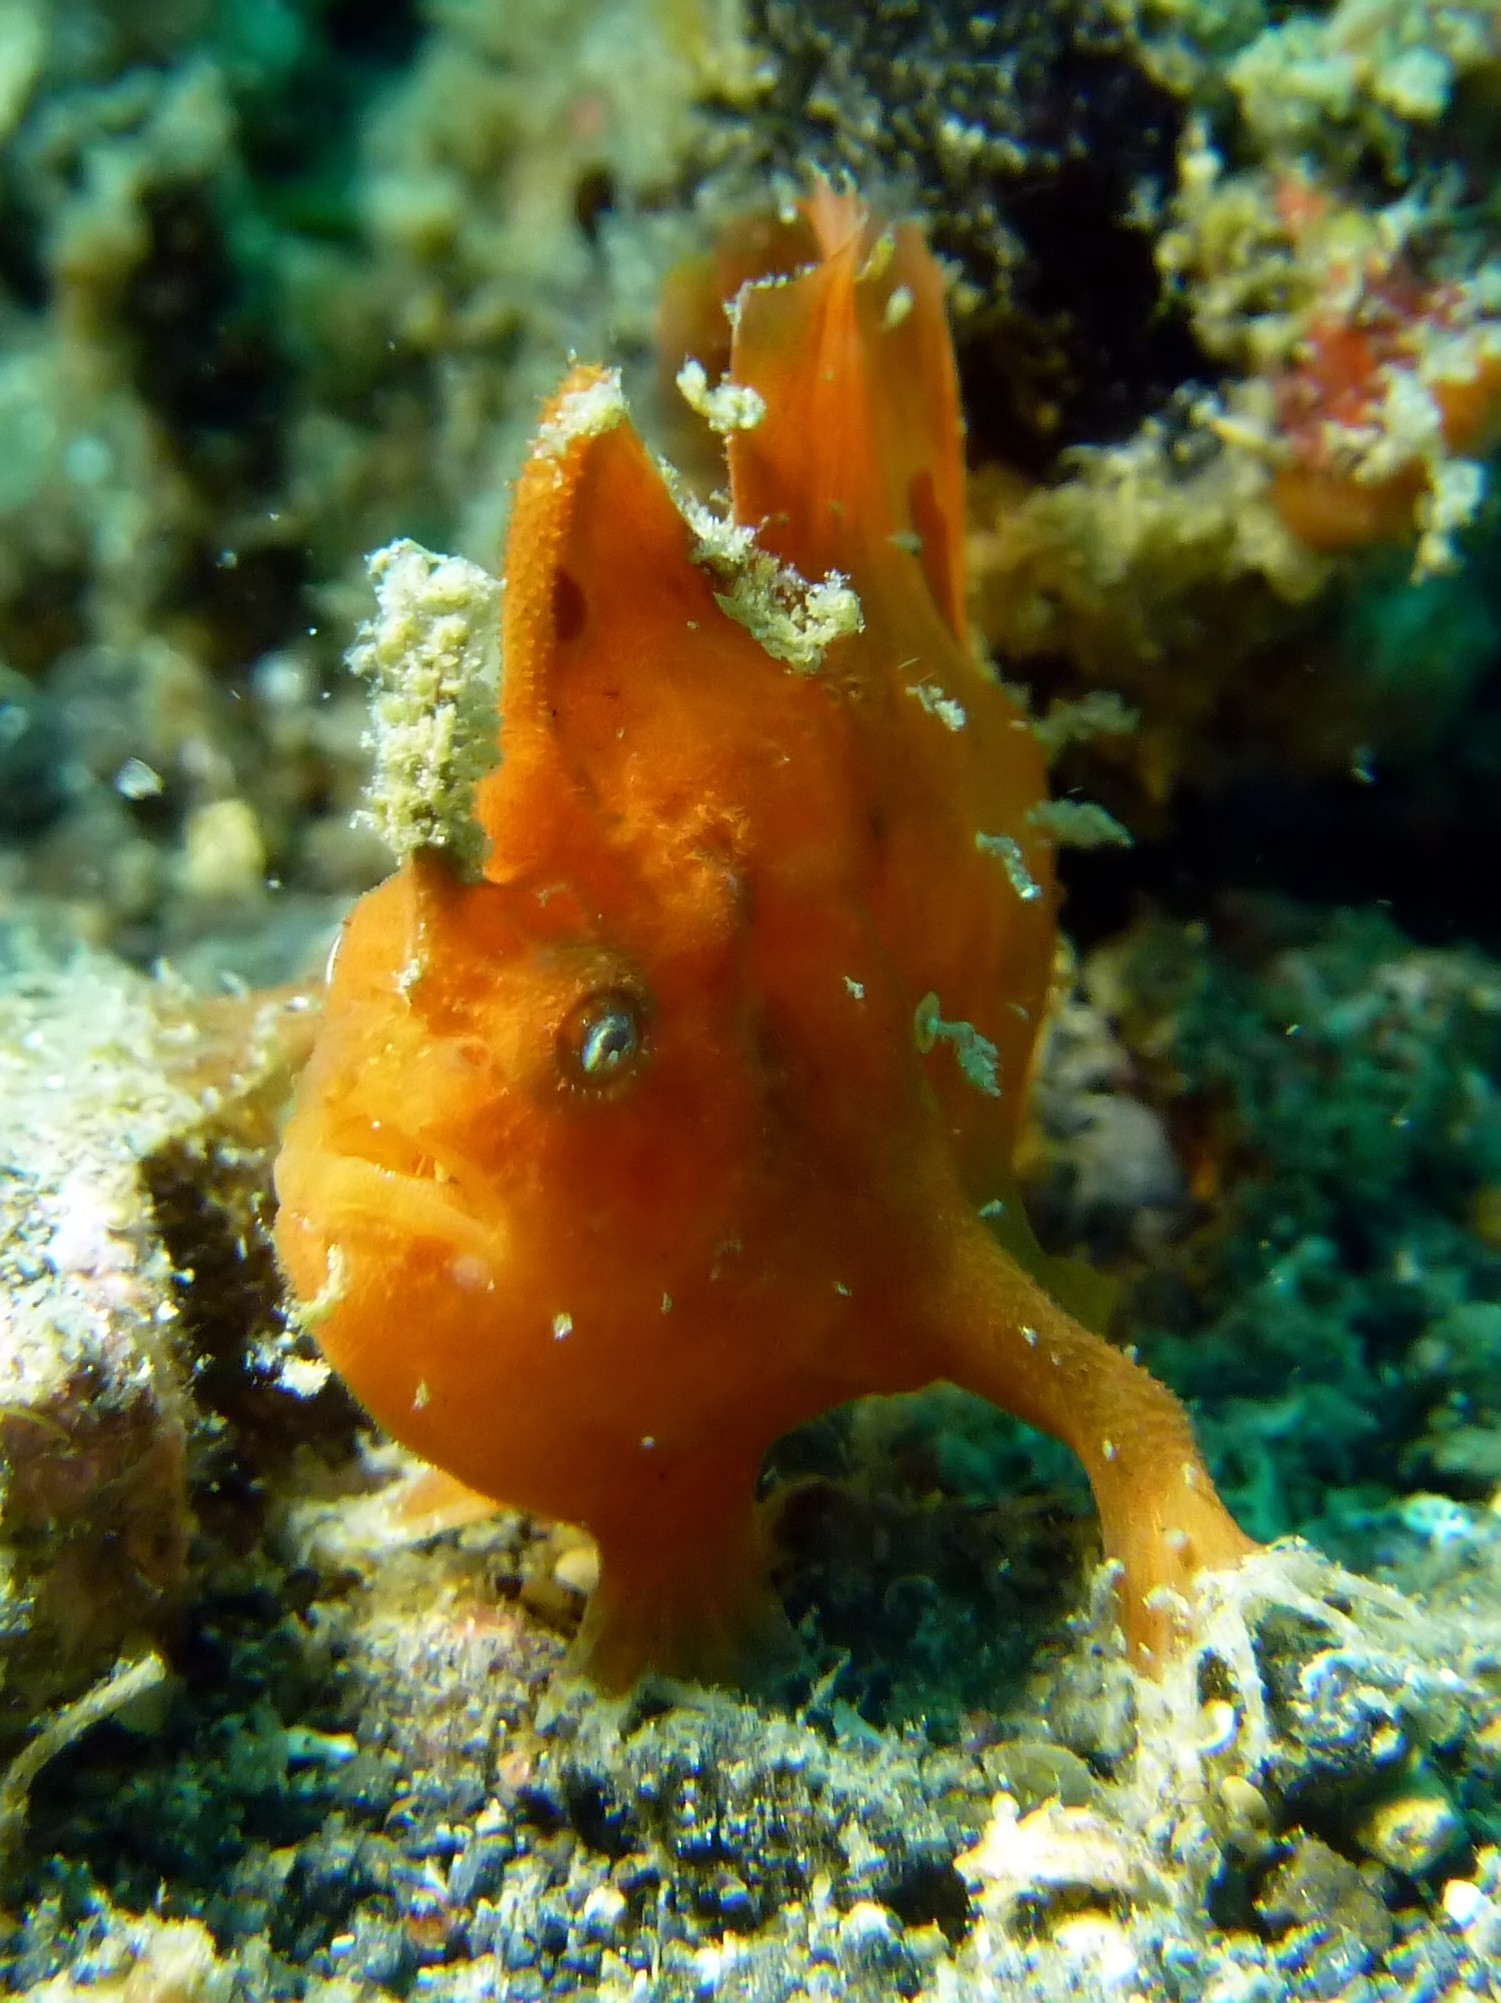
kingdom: Animalia
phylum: Chordata
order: Lophiiformes
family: Antennariidae
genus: Antennarius
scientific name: Antennarius pictus
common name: Painted frogfish
